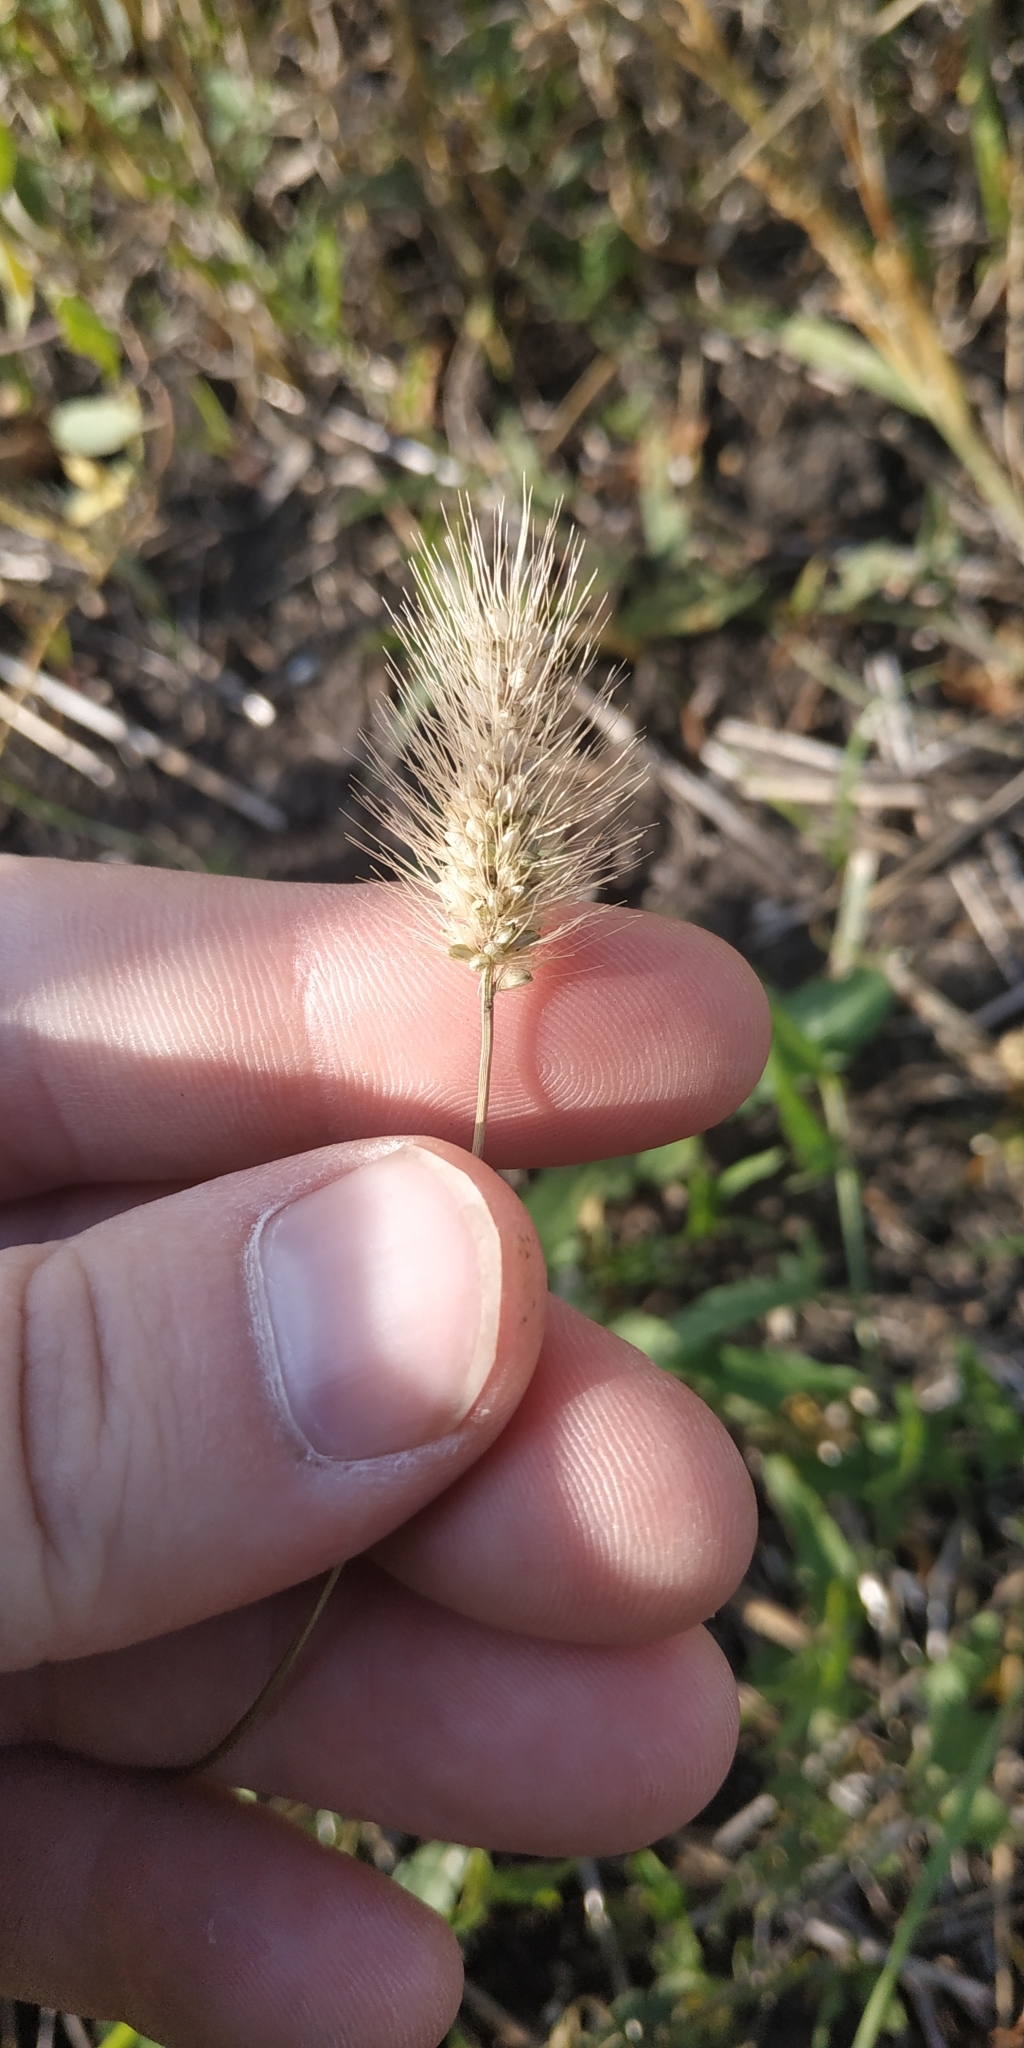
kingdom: Plantae
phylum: Tracheophyta
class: Liliopsida
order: Poales
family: Poaceae
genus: Setaria
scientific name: Setaria viridis
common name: Green bristlegrass
